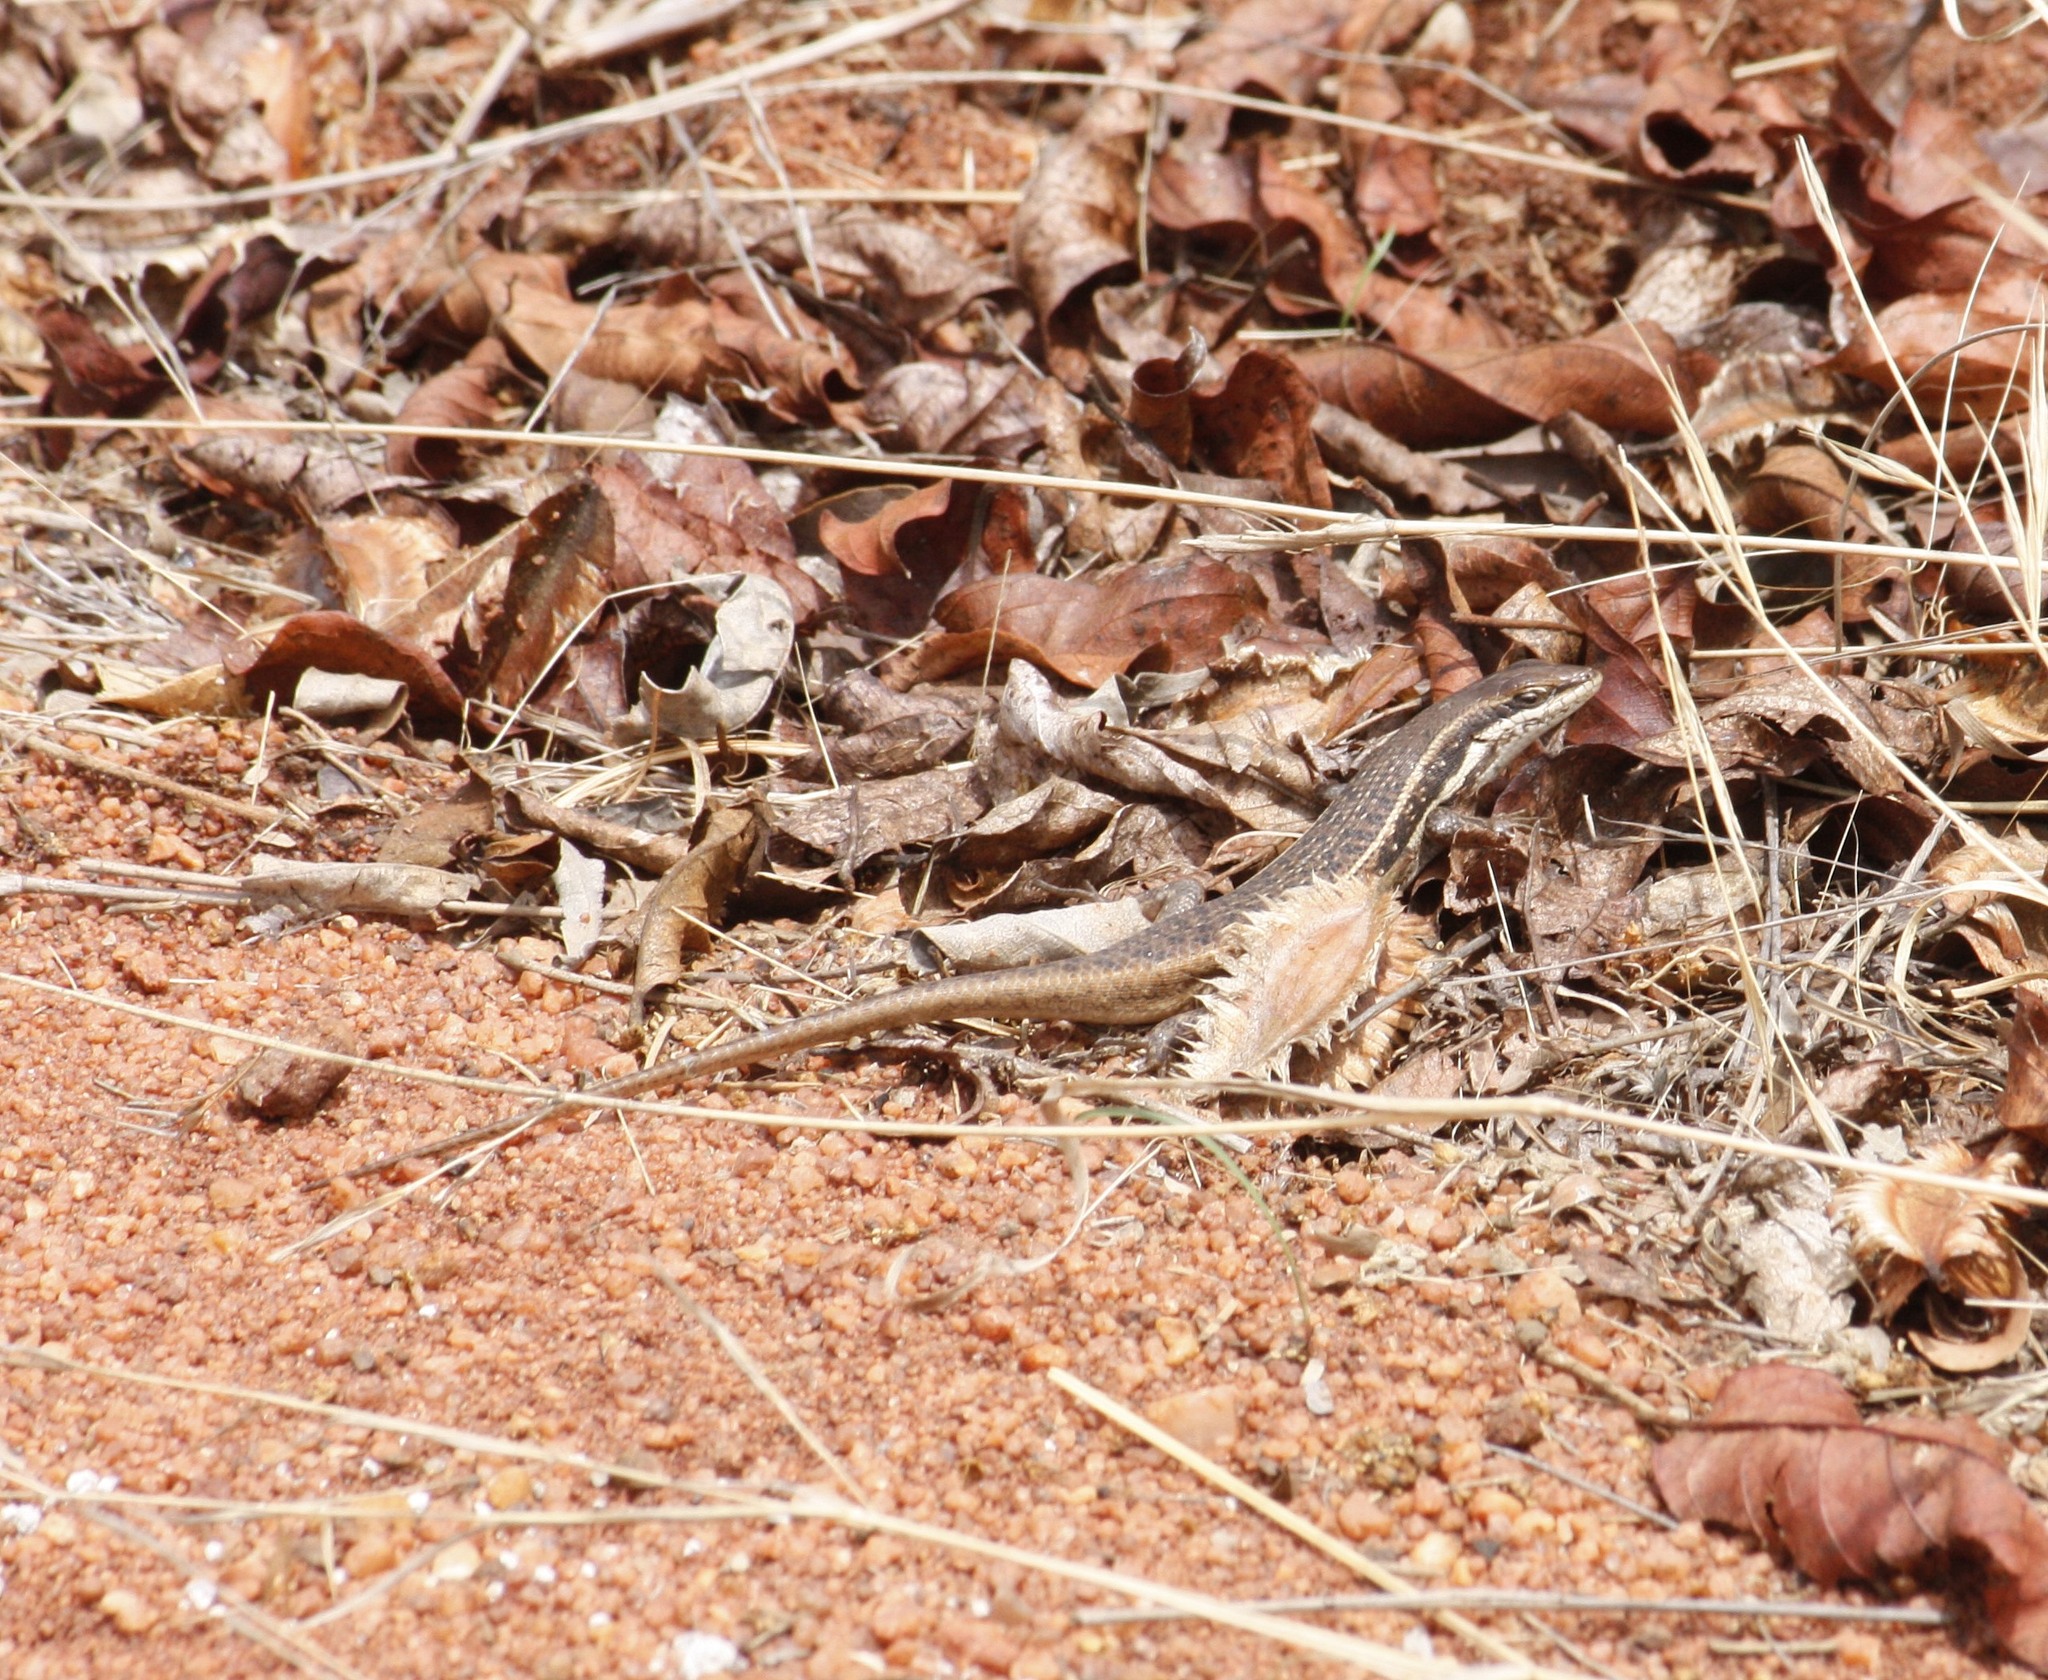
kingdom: Animalia
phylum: Chordata
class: Squamata
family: Scincidae
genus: Trachylepis
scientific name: Trachylepis varia
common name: Eastern variable skink
